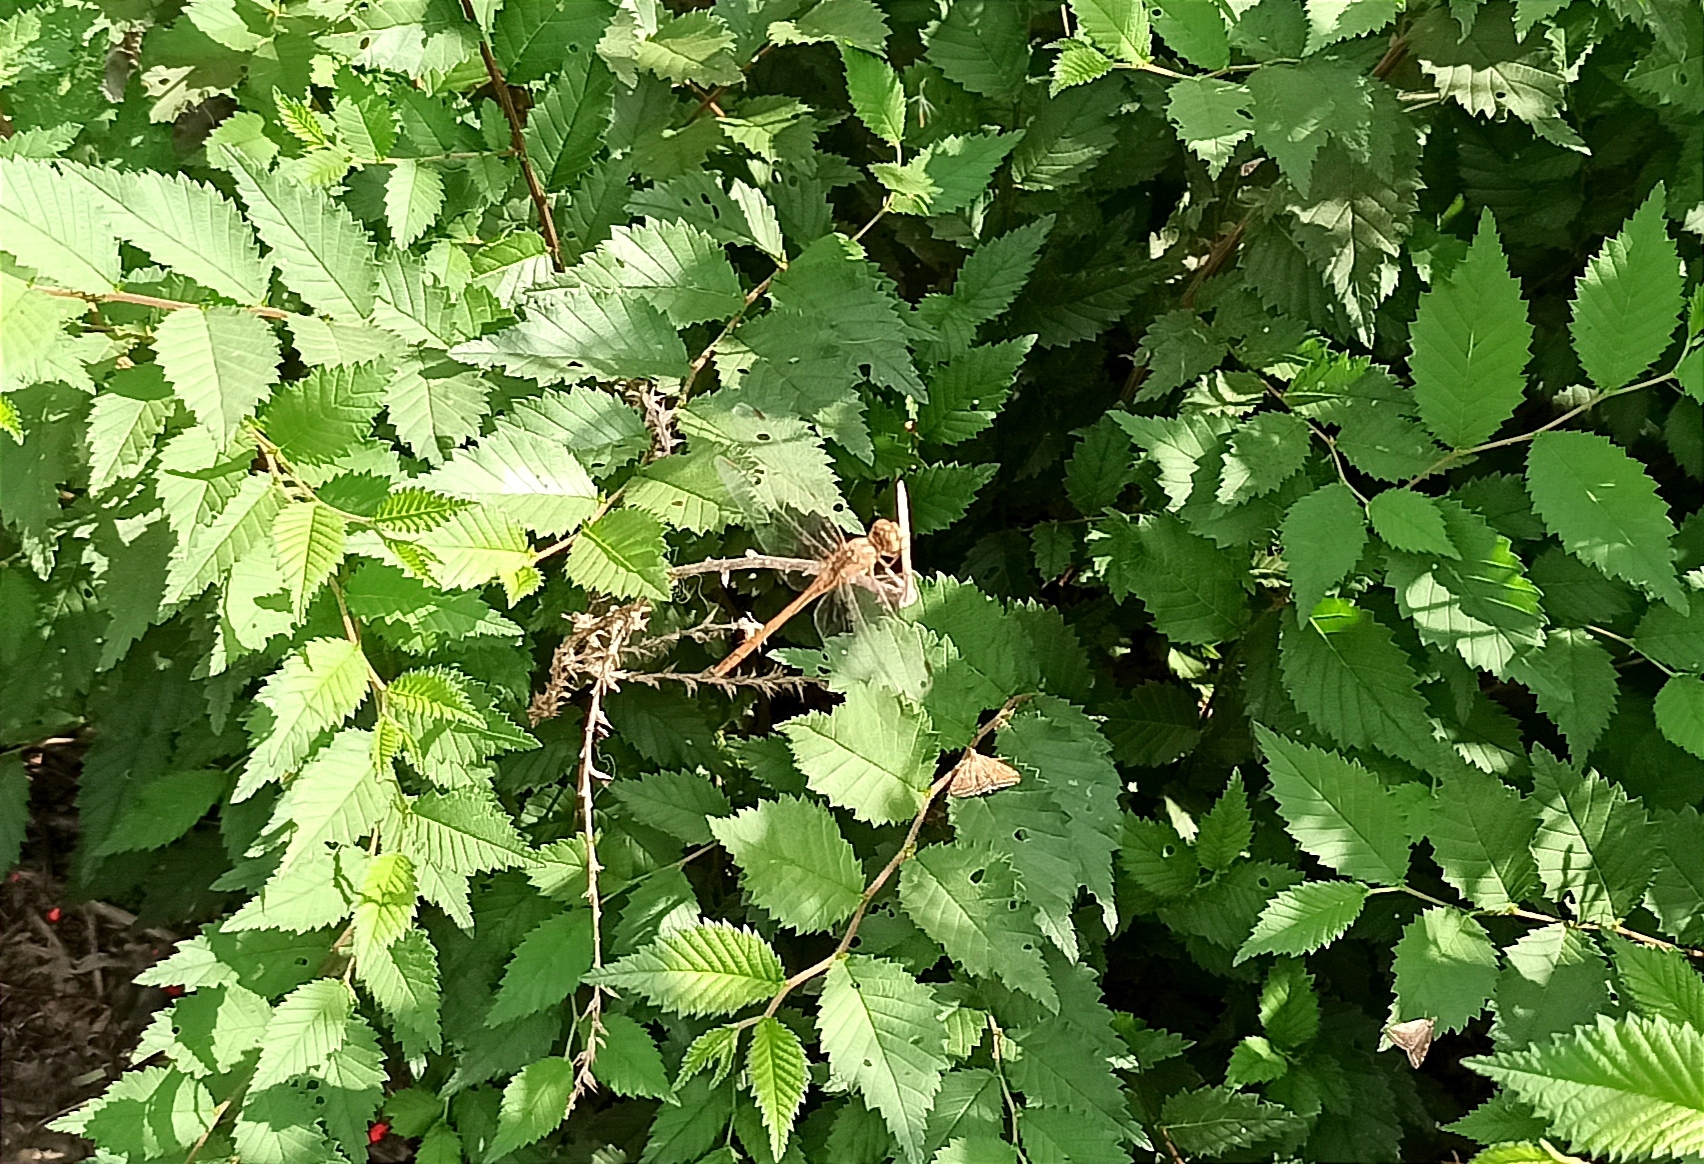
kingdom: Animalia
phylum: Arthropoda
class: Insecta
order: Odonata
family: Libellulidae
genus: Sympetrum
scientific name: Sympetrum meridionale
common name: Southern darter
